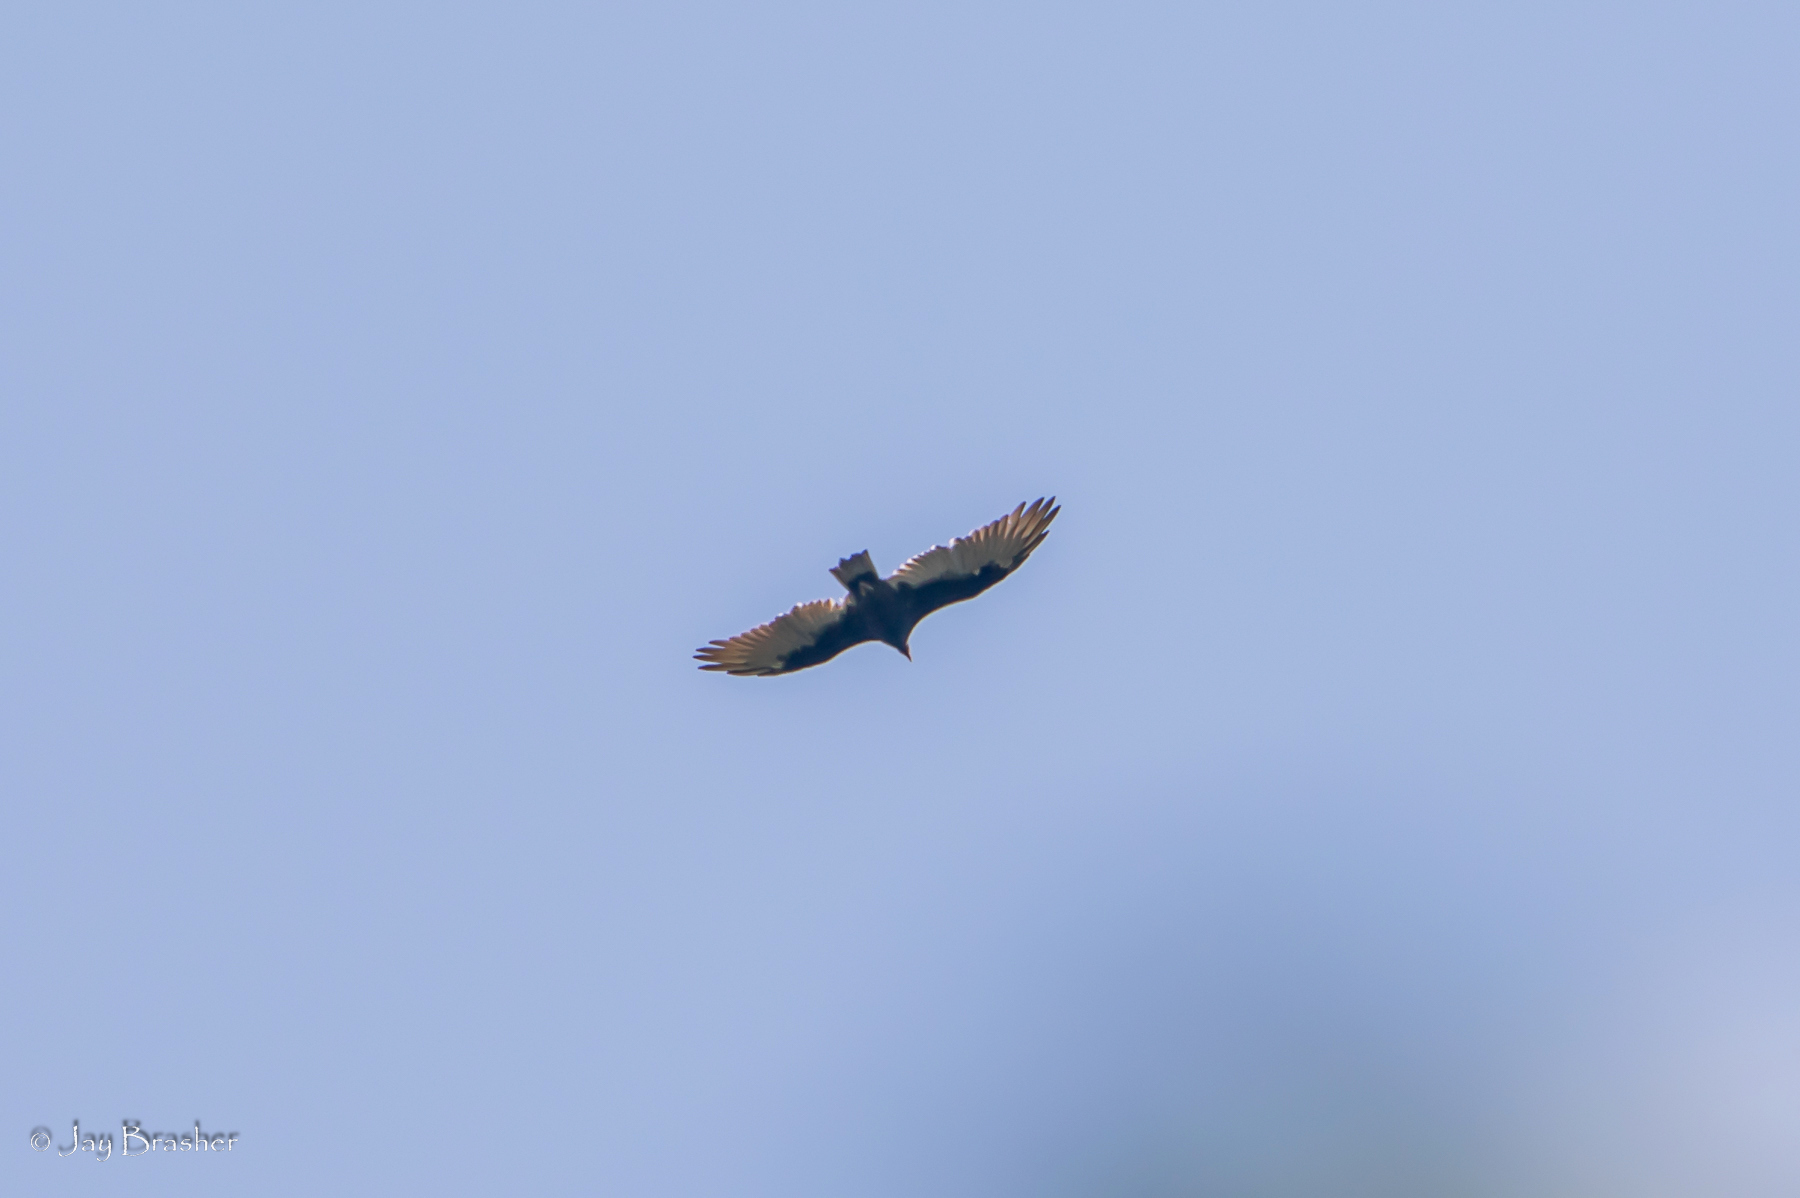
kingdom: Animalia
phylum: Chordata
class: Aves
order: Accipitriformes
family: Cathartidae
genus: Cathartes
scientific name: Cathartes aura
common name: Turkey vulture
